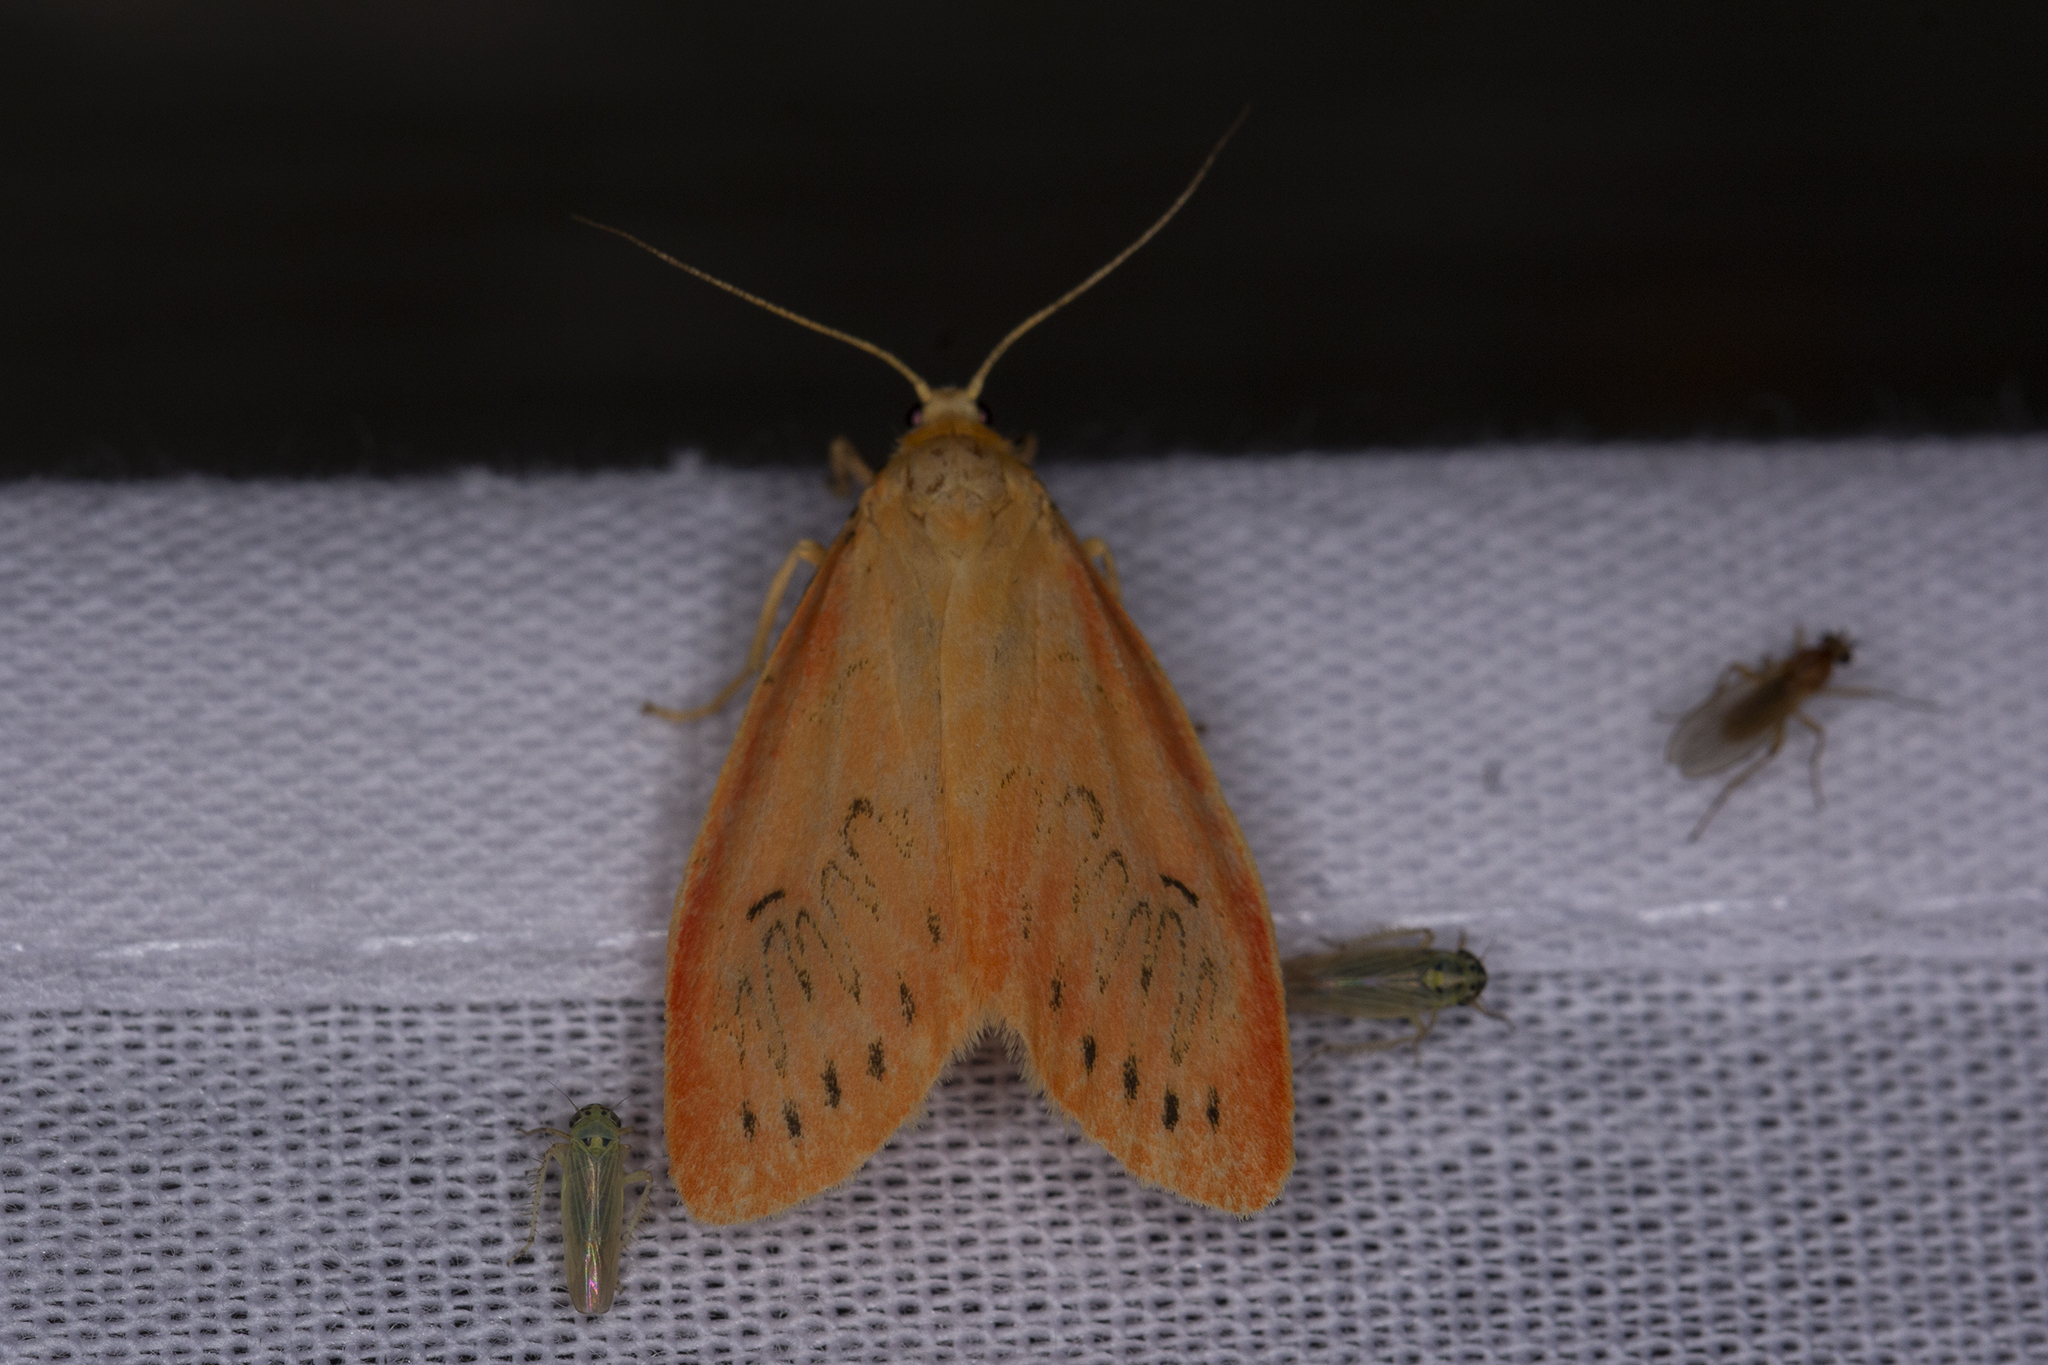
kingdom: Animalia
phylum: Arthropoda
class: Insecta
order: Lepidoptera
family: Erebidae
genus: Miltochrista
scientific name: Miltochrista miniata
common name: Rosy footman
